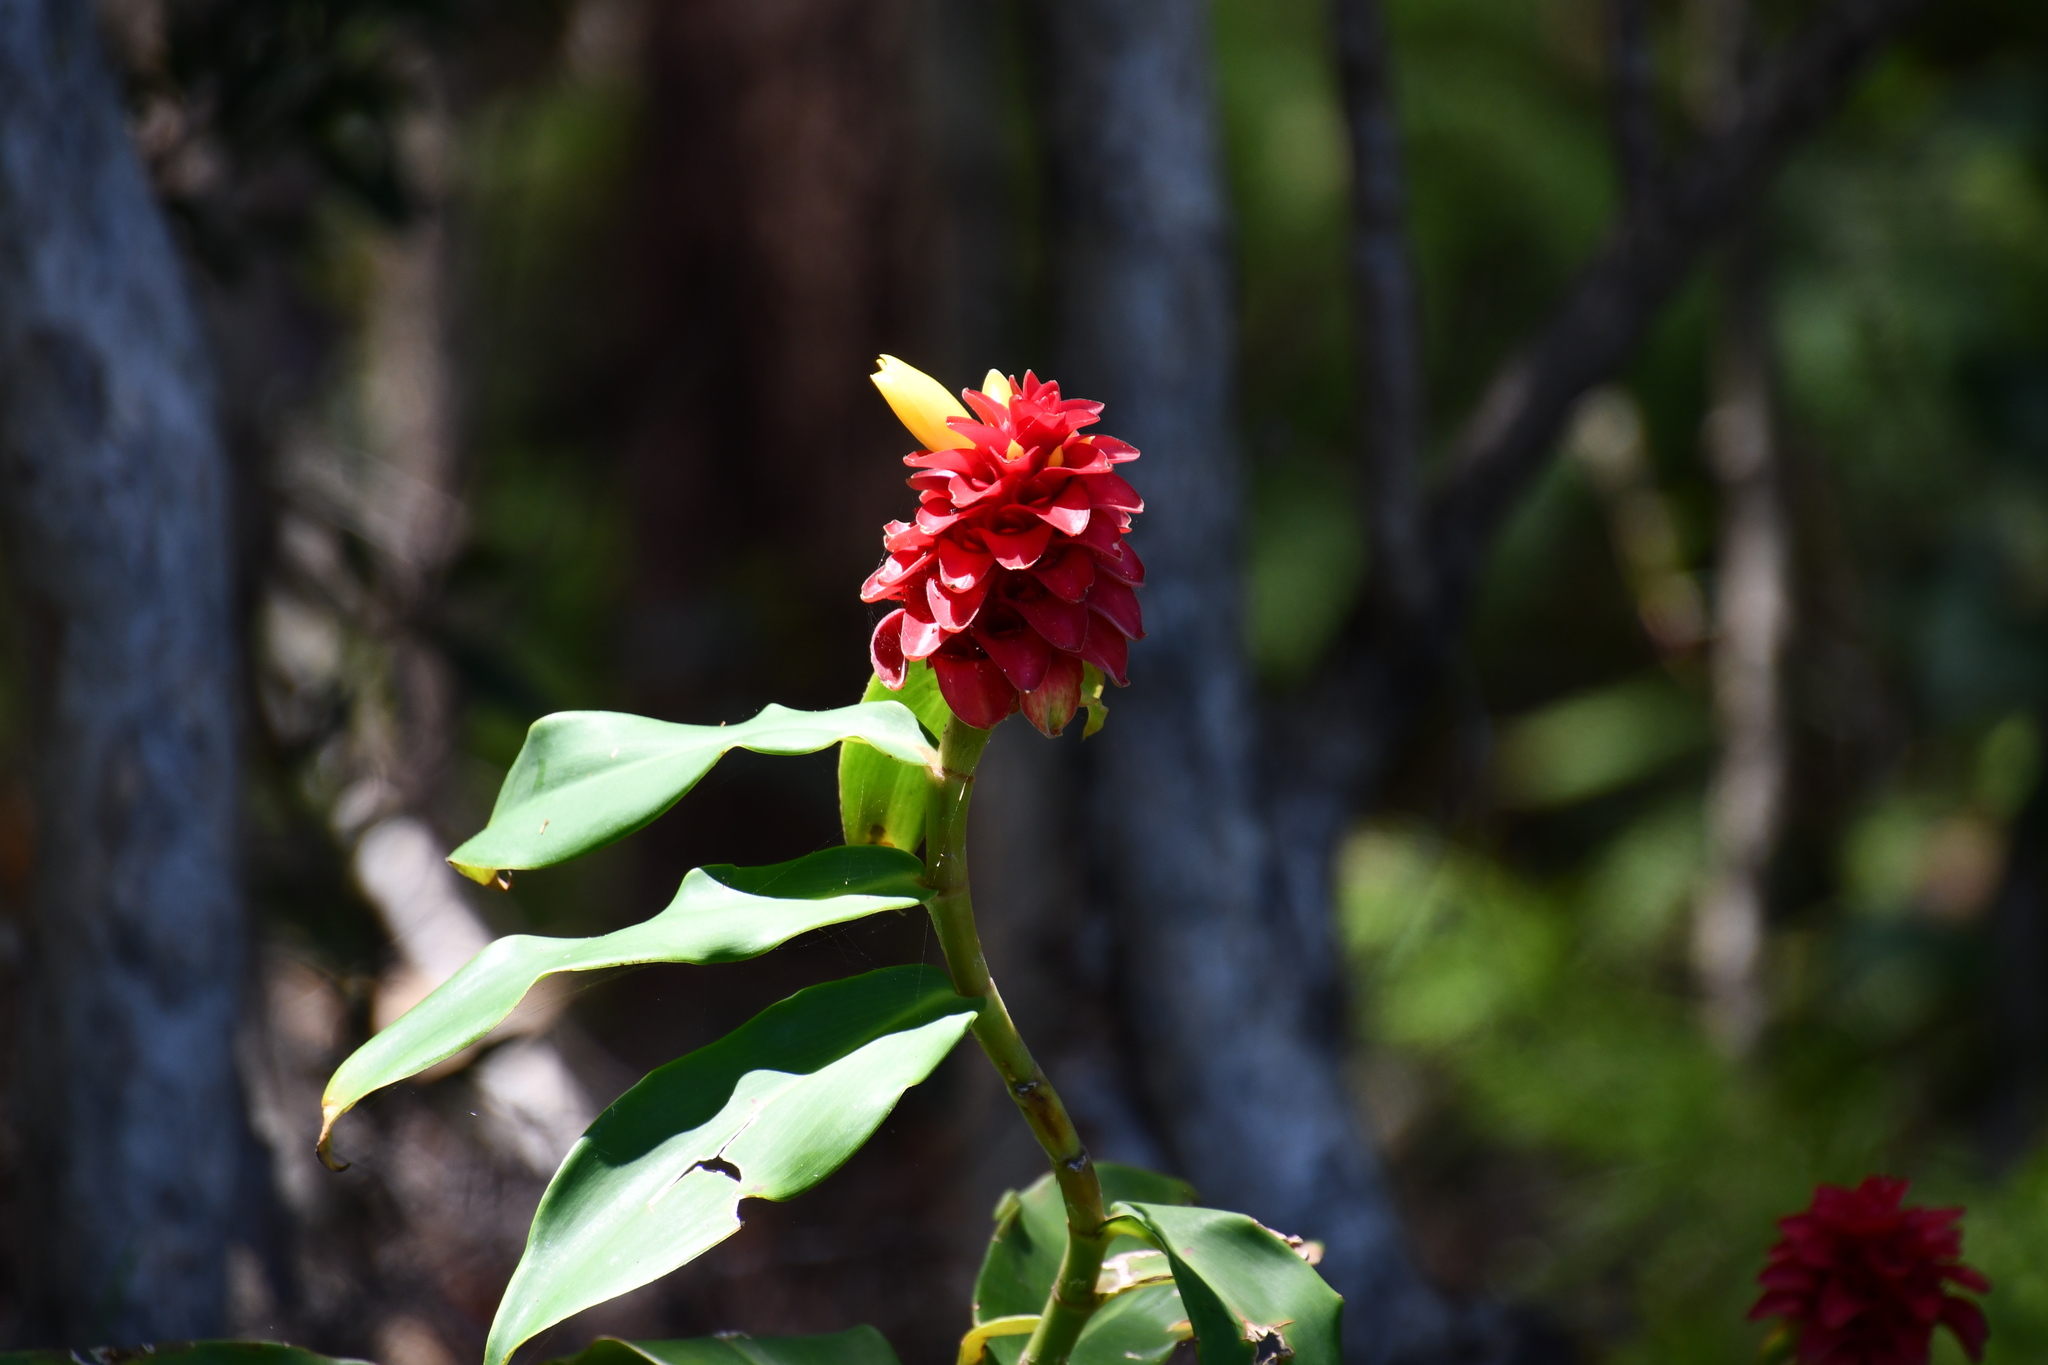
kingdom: Plantae
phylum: Tracheophyta
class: Liliopsida
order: Zingiberales
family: Costaceae
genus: Costus
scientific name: Costus comosus
